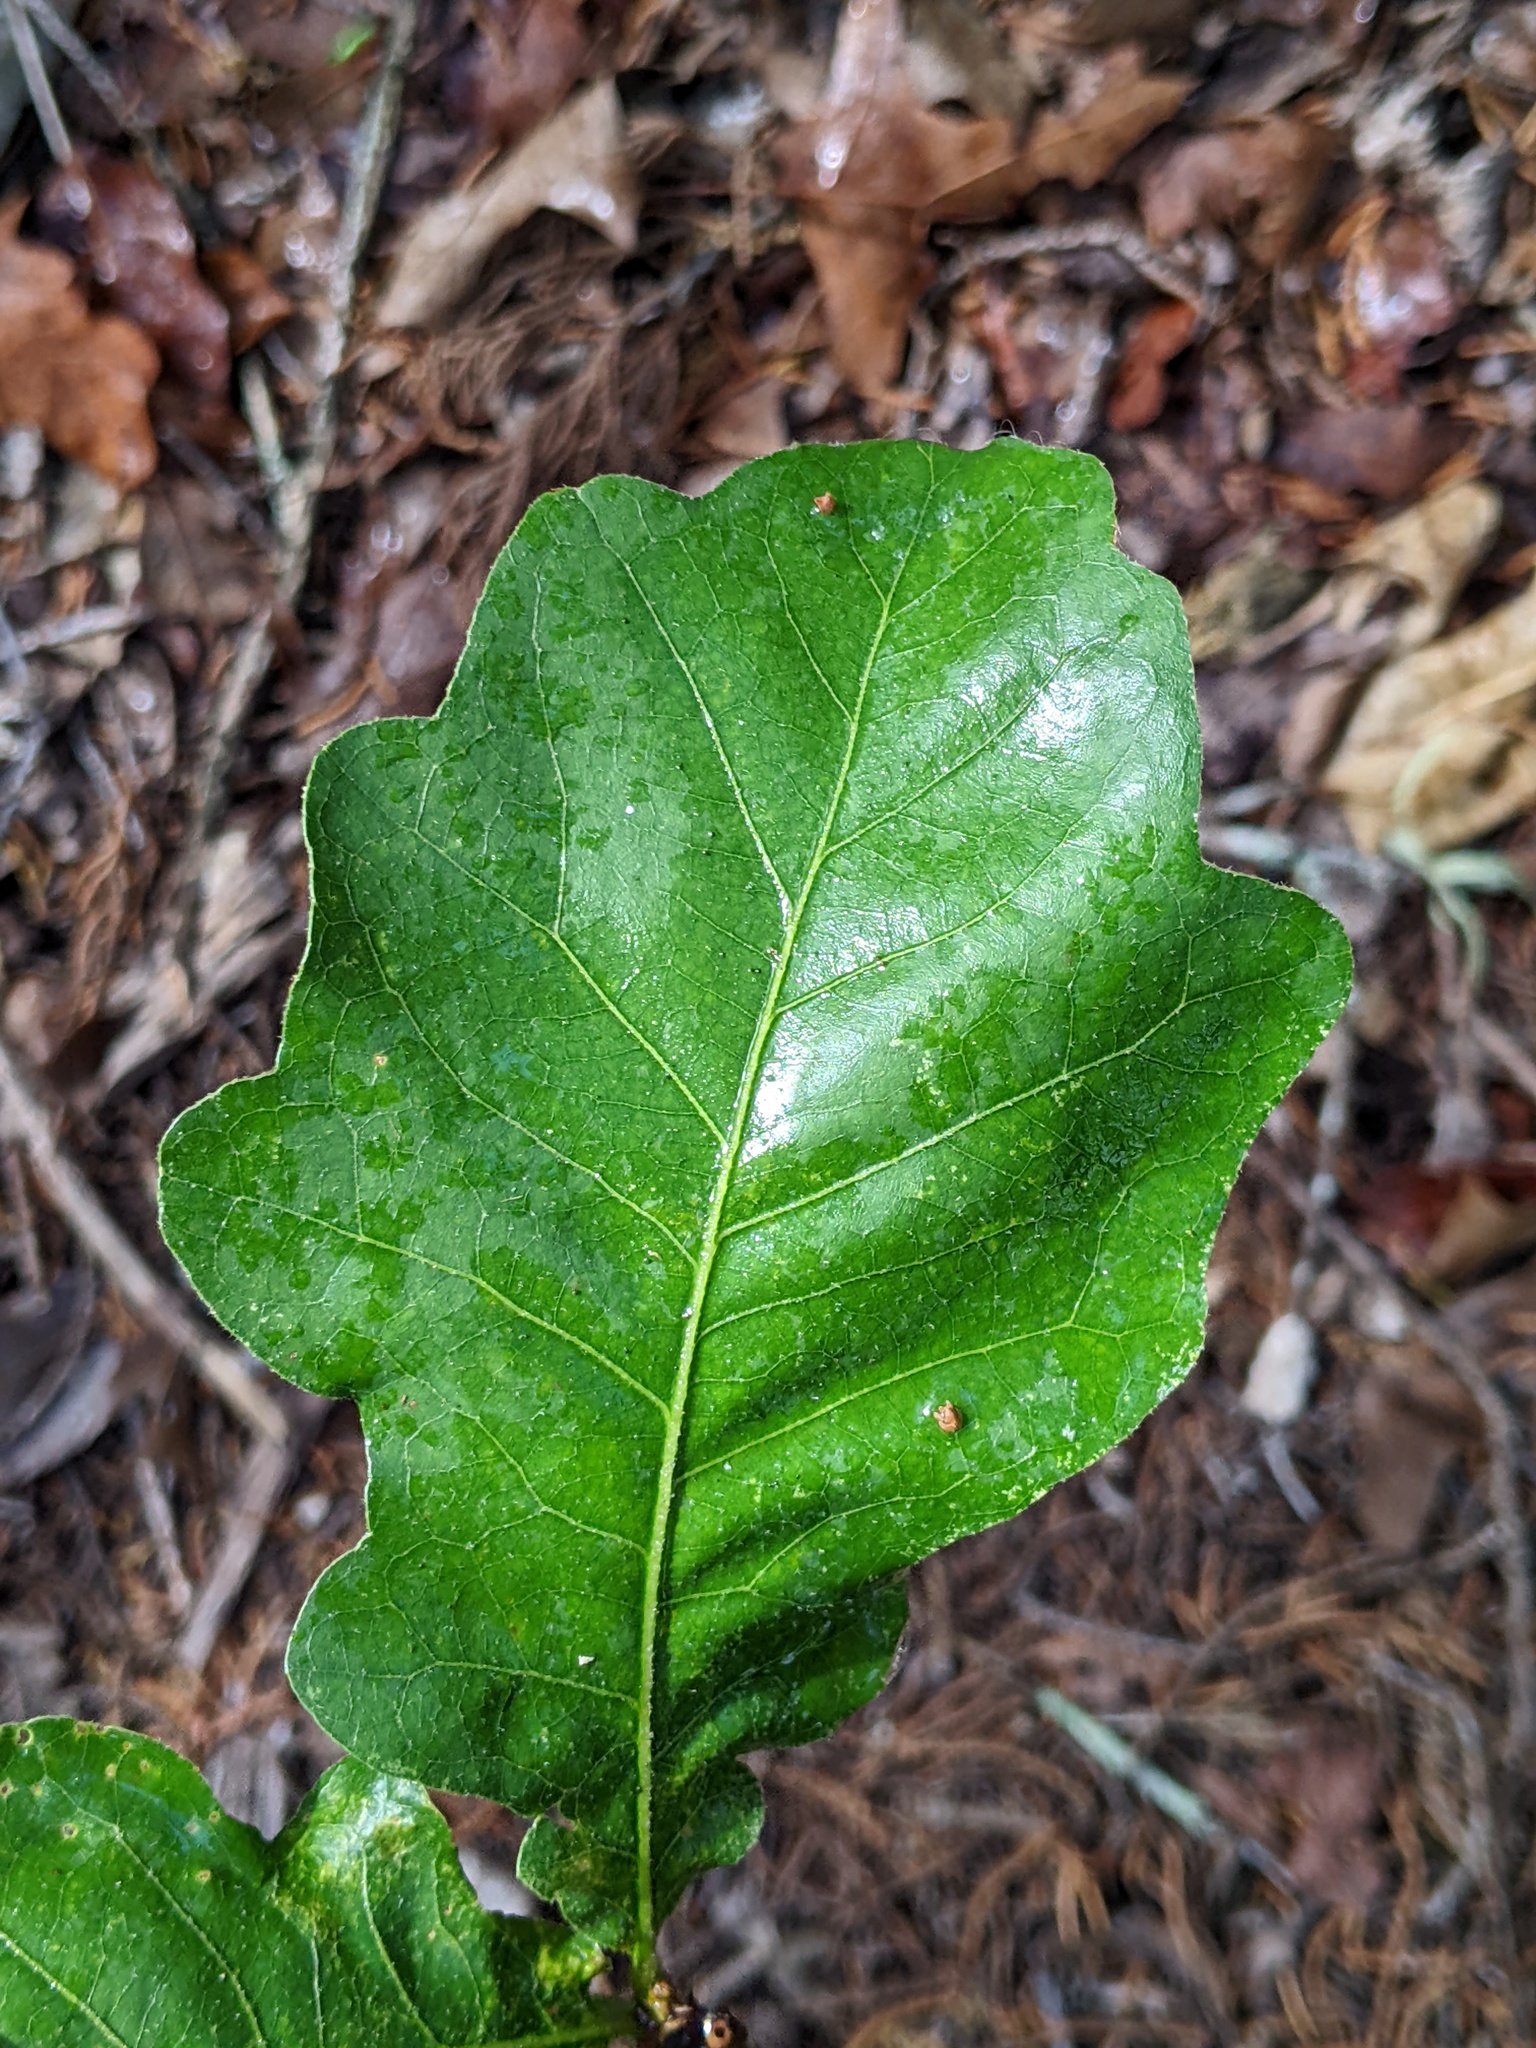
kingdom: Plantae
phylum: Tracheophyta
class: Magnoliopsida
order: Fagales
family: Fagaceae
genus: Quercus
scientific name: Quercus sinuata
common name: Durand oak
